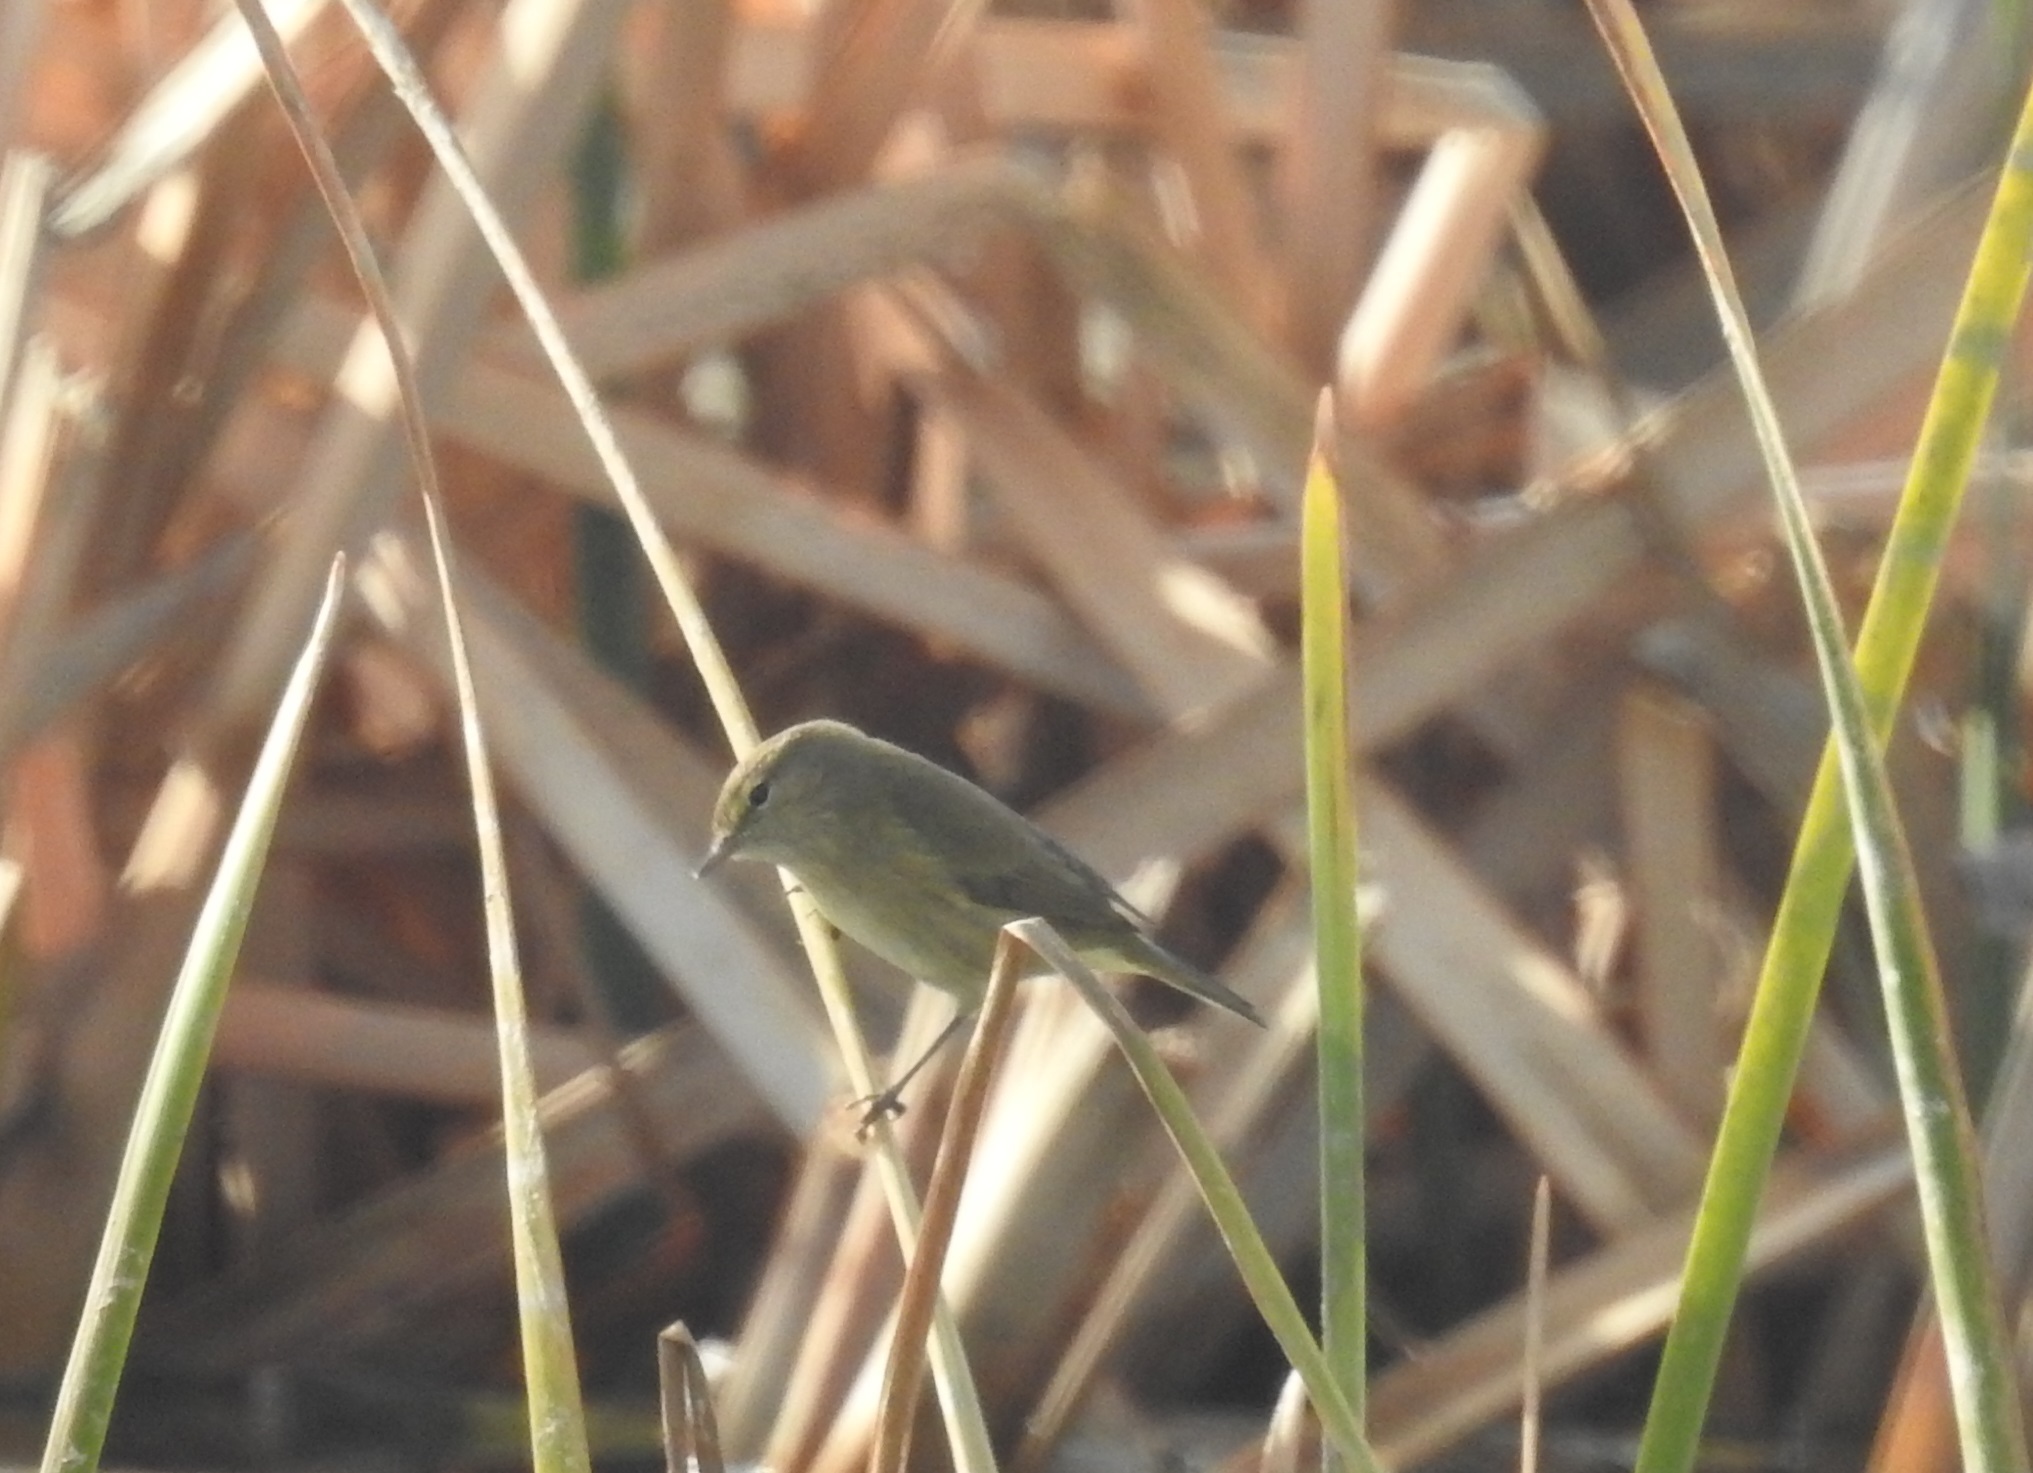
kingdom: Animalia
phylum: Chordata
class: Aves
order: Passeriformes
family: Phylloscopidae
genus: Phylloscopus
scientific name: Phylloscopus collybita
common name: Common chiffchaff
